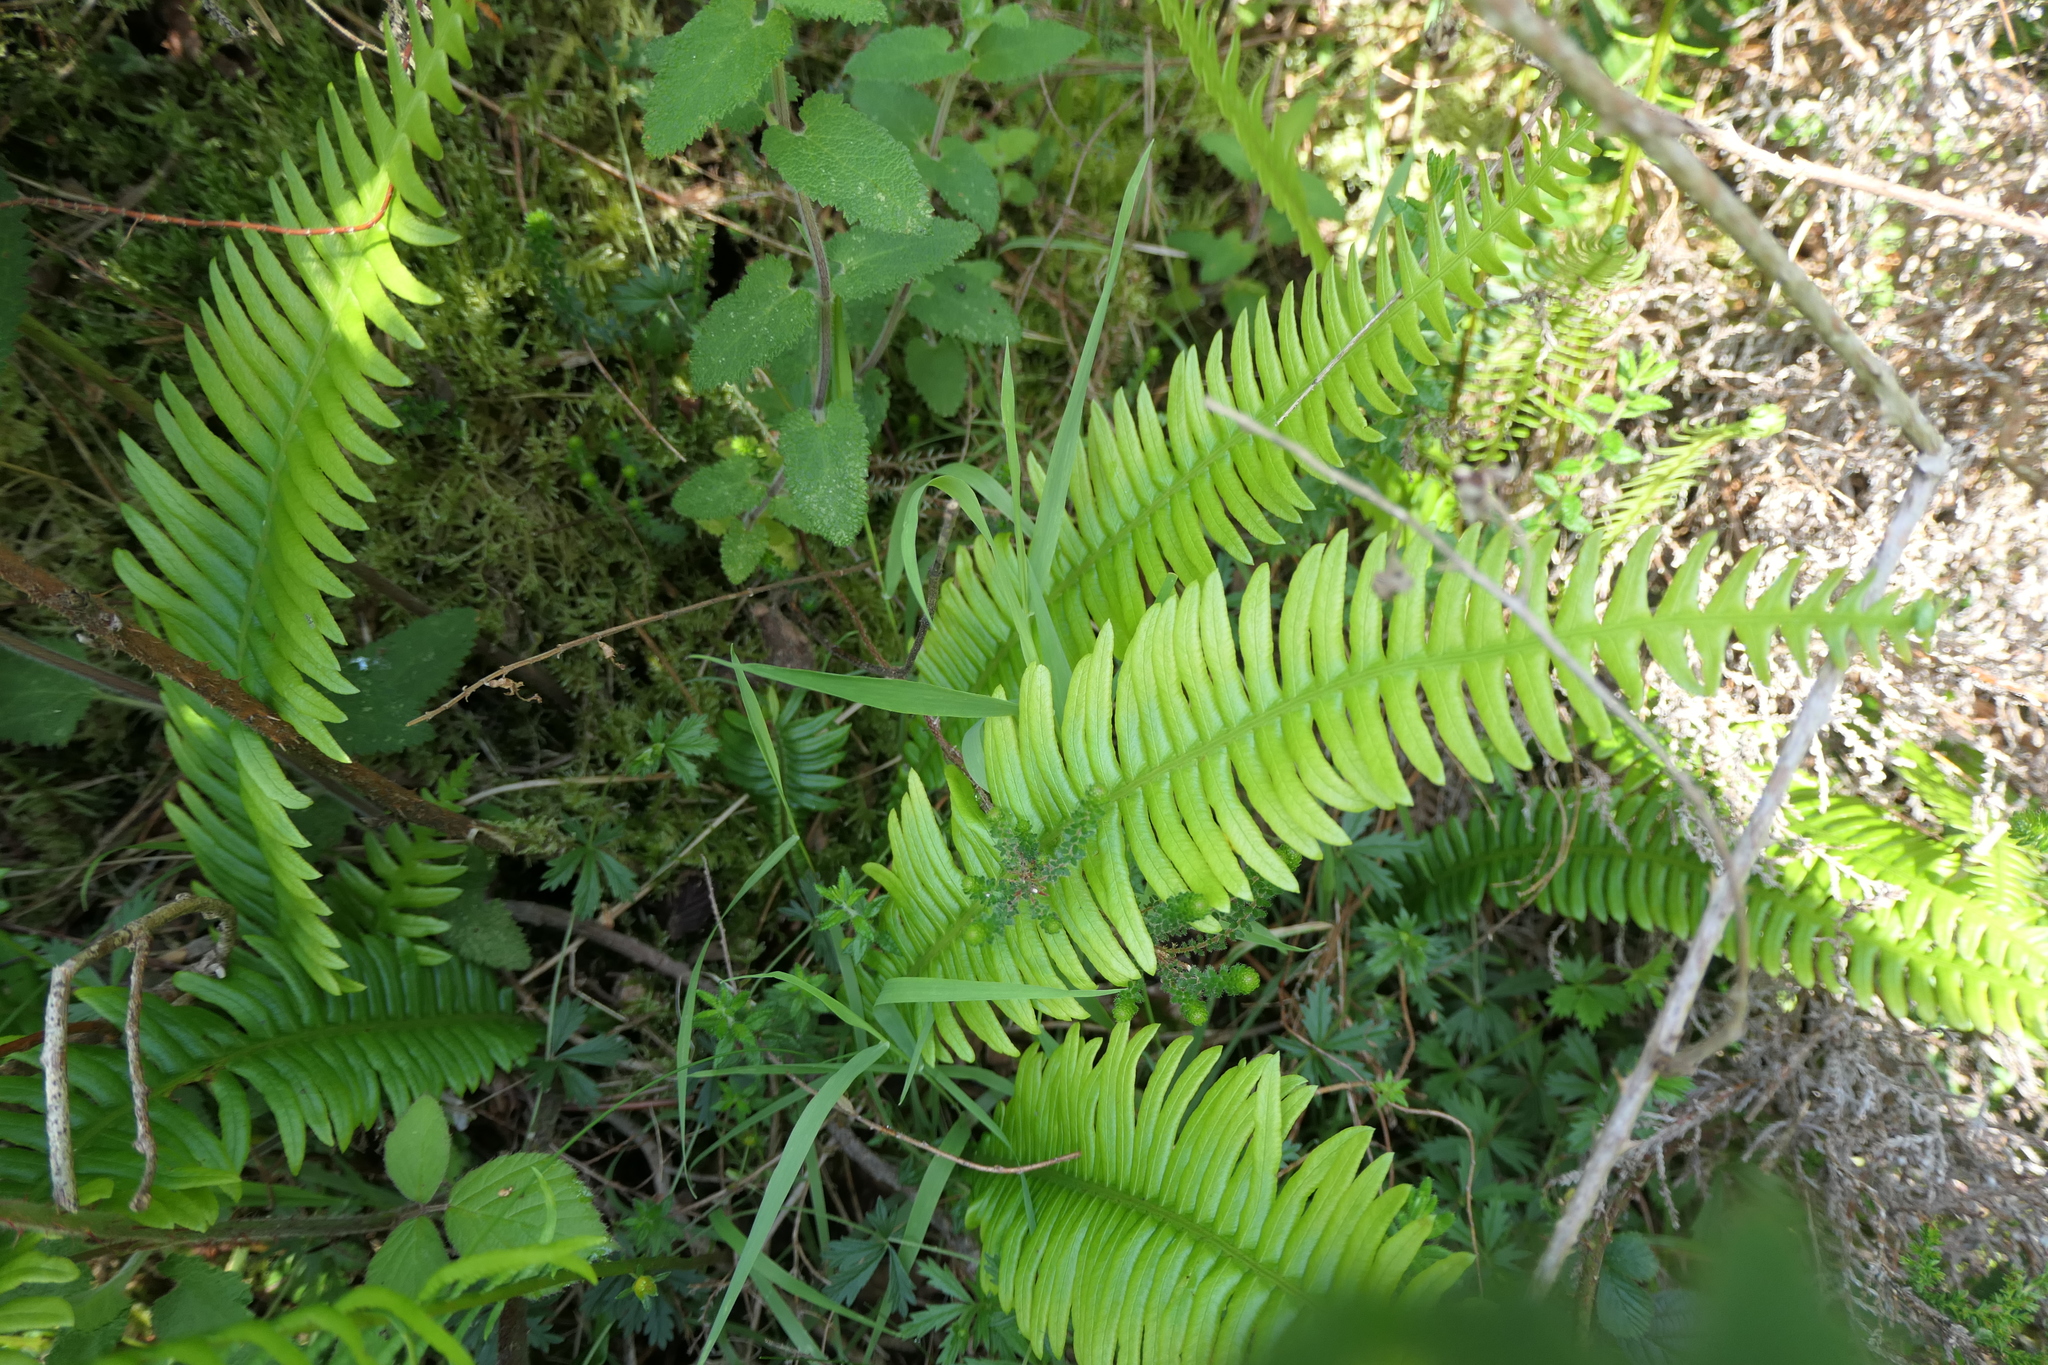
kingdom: Plantae
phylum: Tracheophyta
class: Polypodiopsida
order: Polypodiales
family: Blechnaceae
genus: Struthiopteris
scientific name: Struthiopteris spicant
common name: Deer fern
